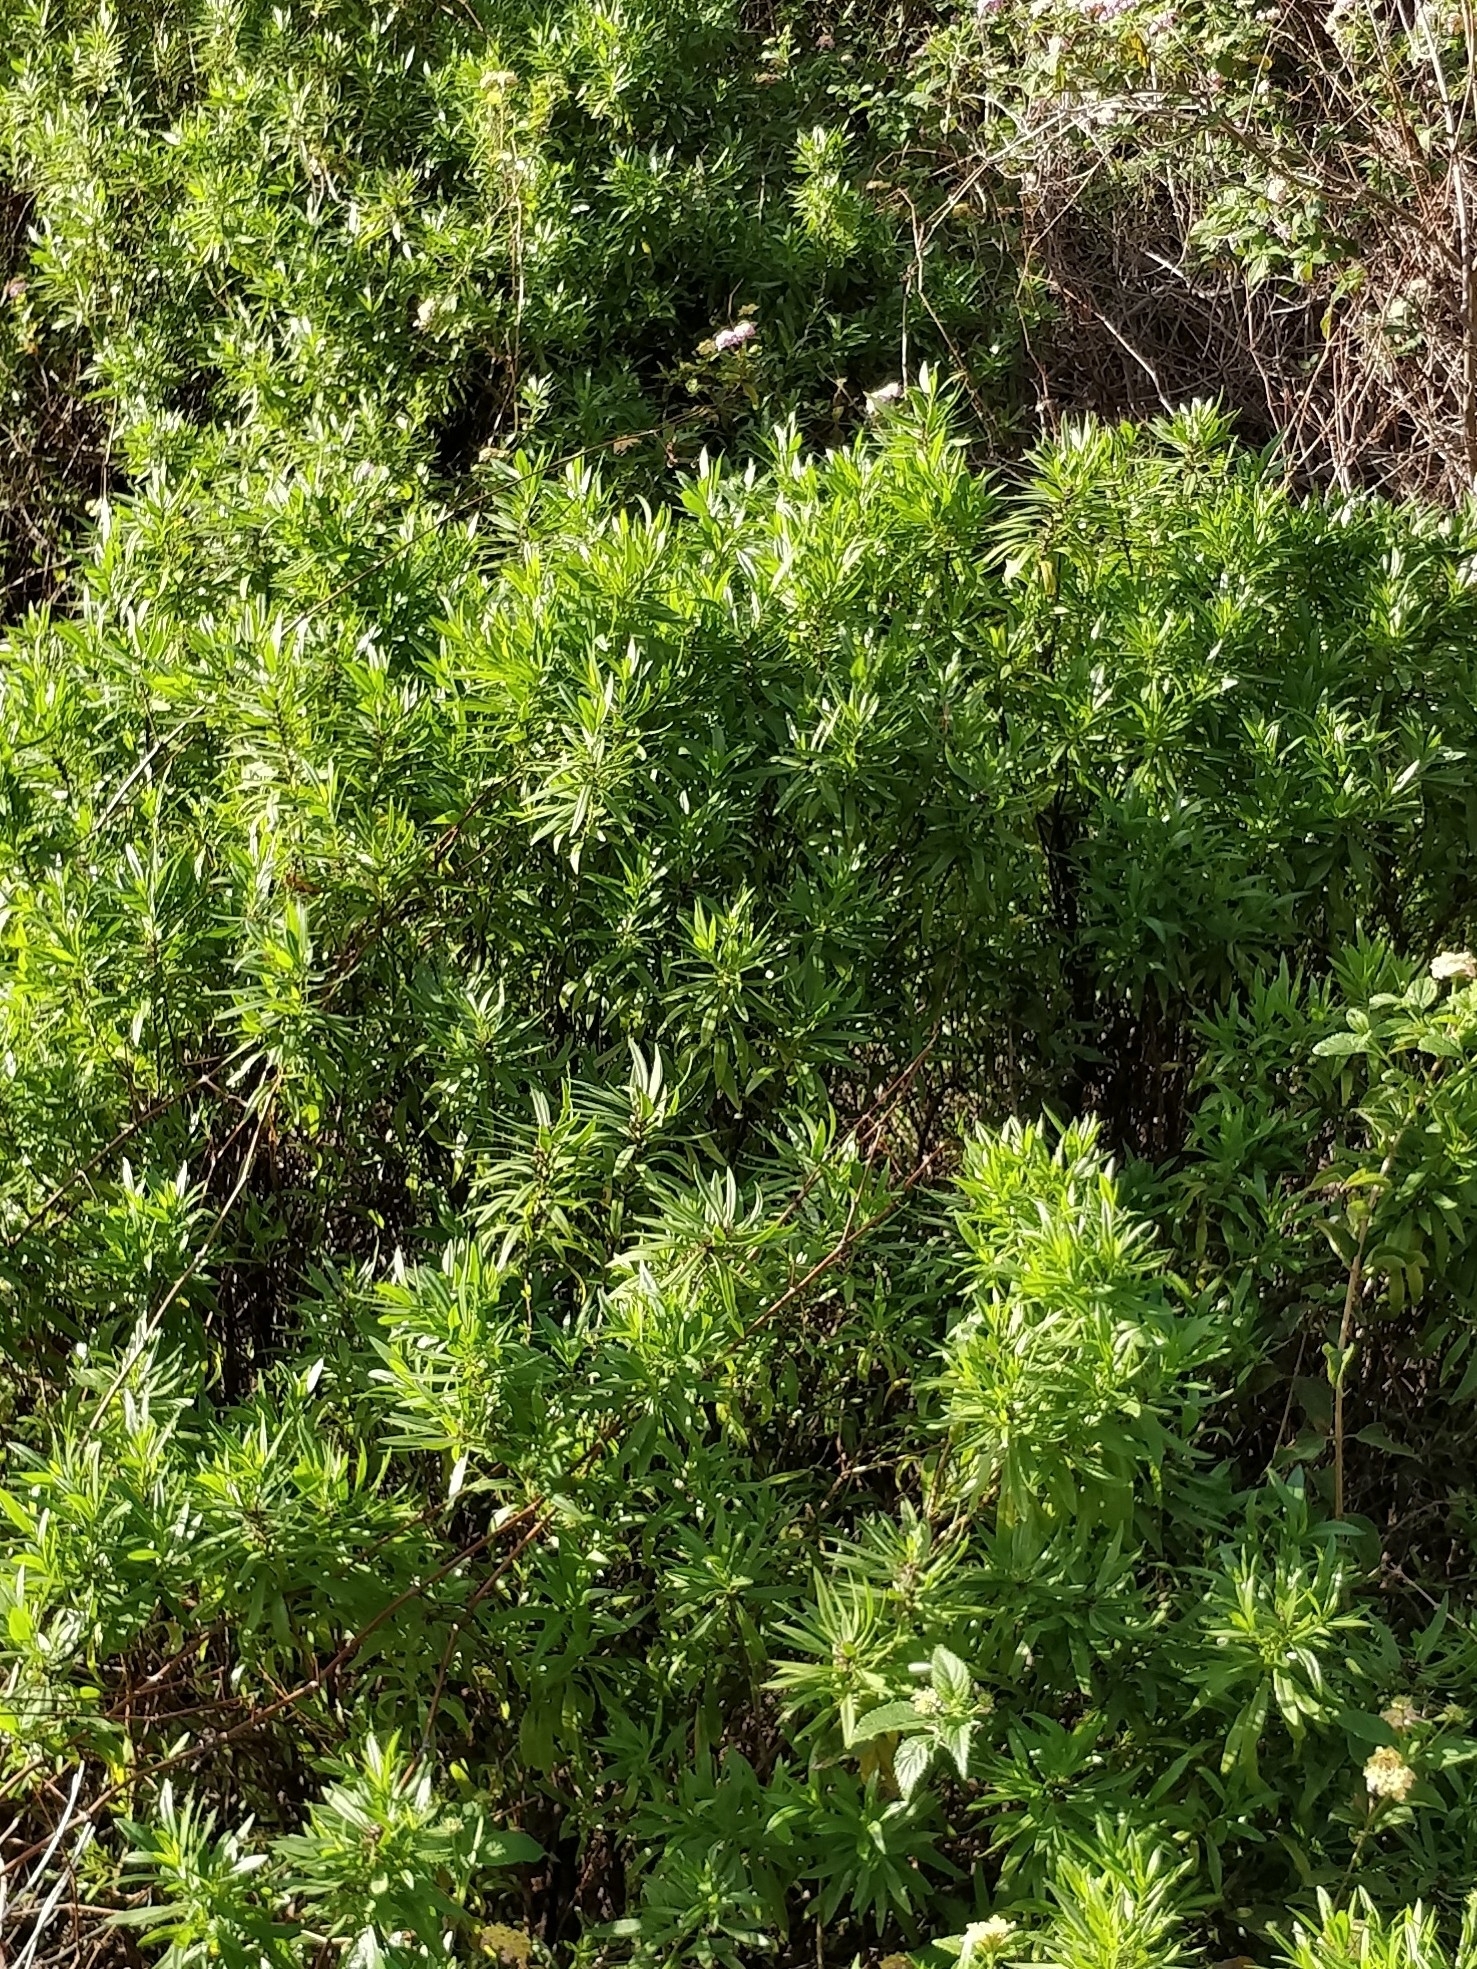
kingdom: Plantae
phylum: Tracheophyta
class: Magnoliopsida
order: Lamiales
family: Plantaginaceae
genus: Globularia
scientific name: Globularia salicina
